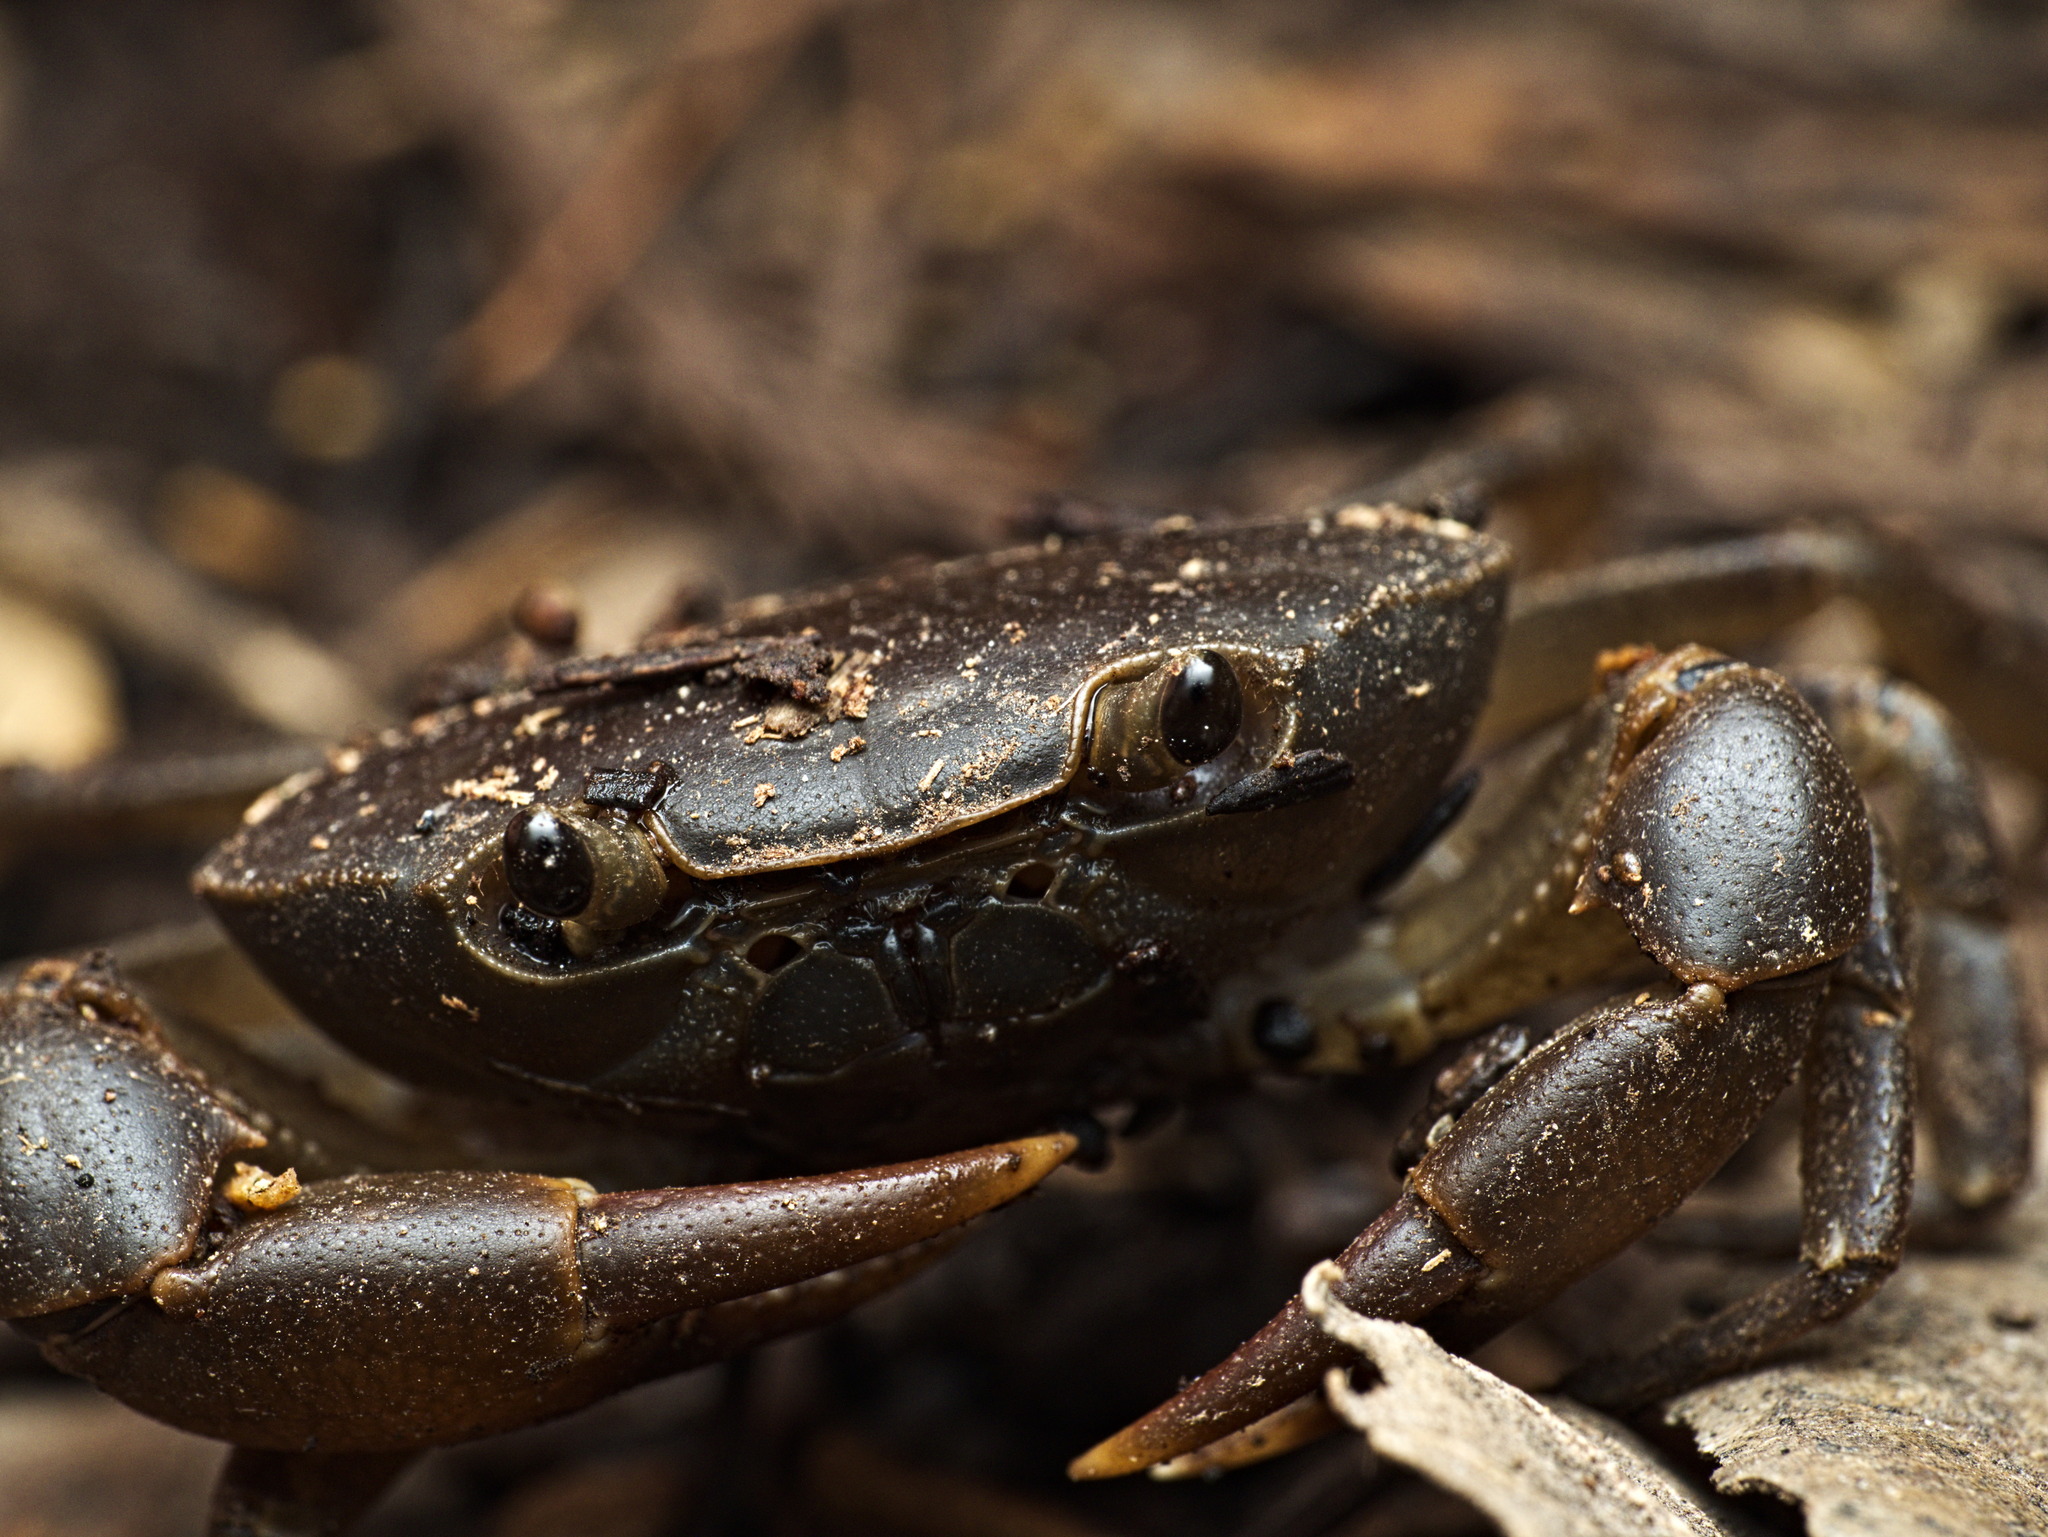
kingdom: Animalia
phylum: Arthropoda
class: Malacostraca
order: Decapoda
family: Pseudothelphusidae
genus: Pseudothelphusa
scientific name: Pseudothelphusa dugesi
